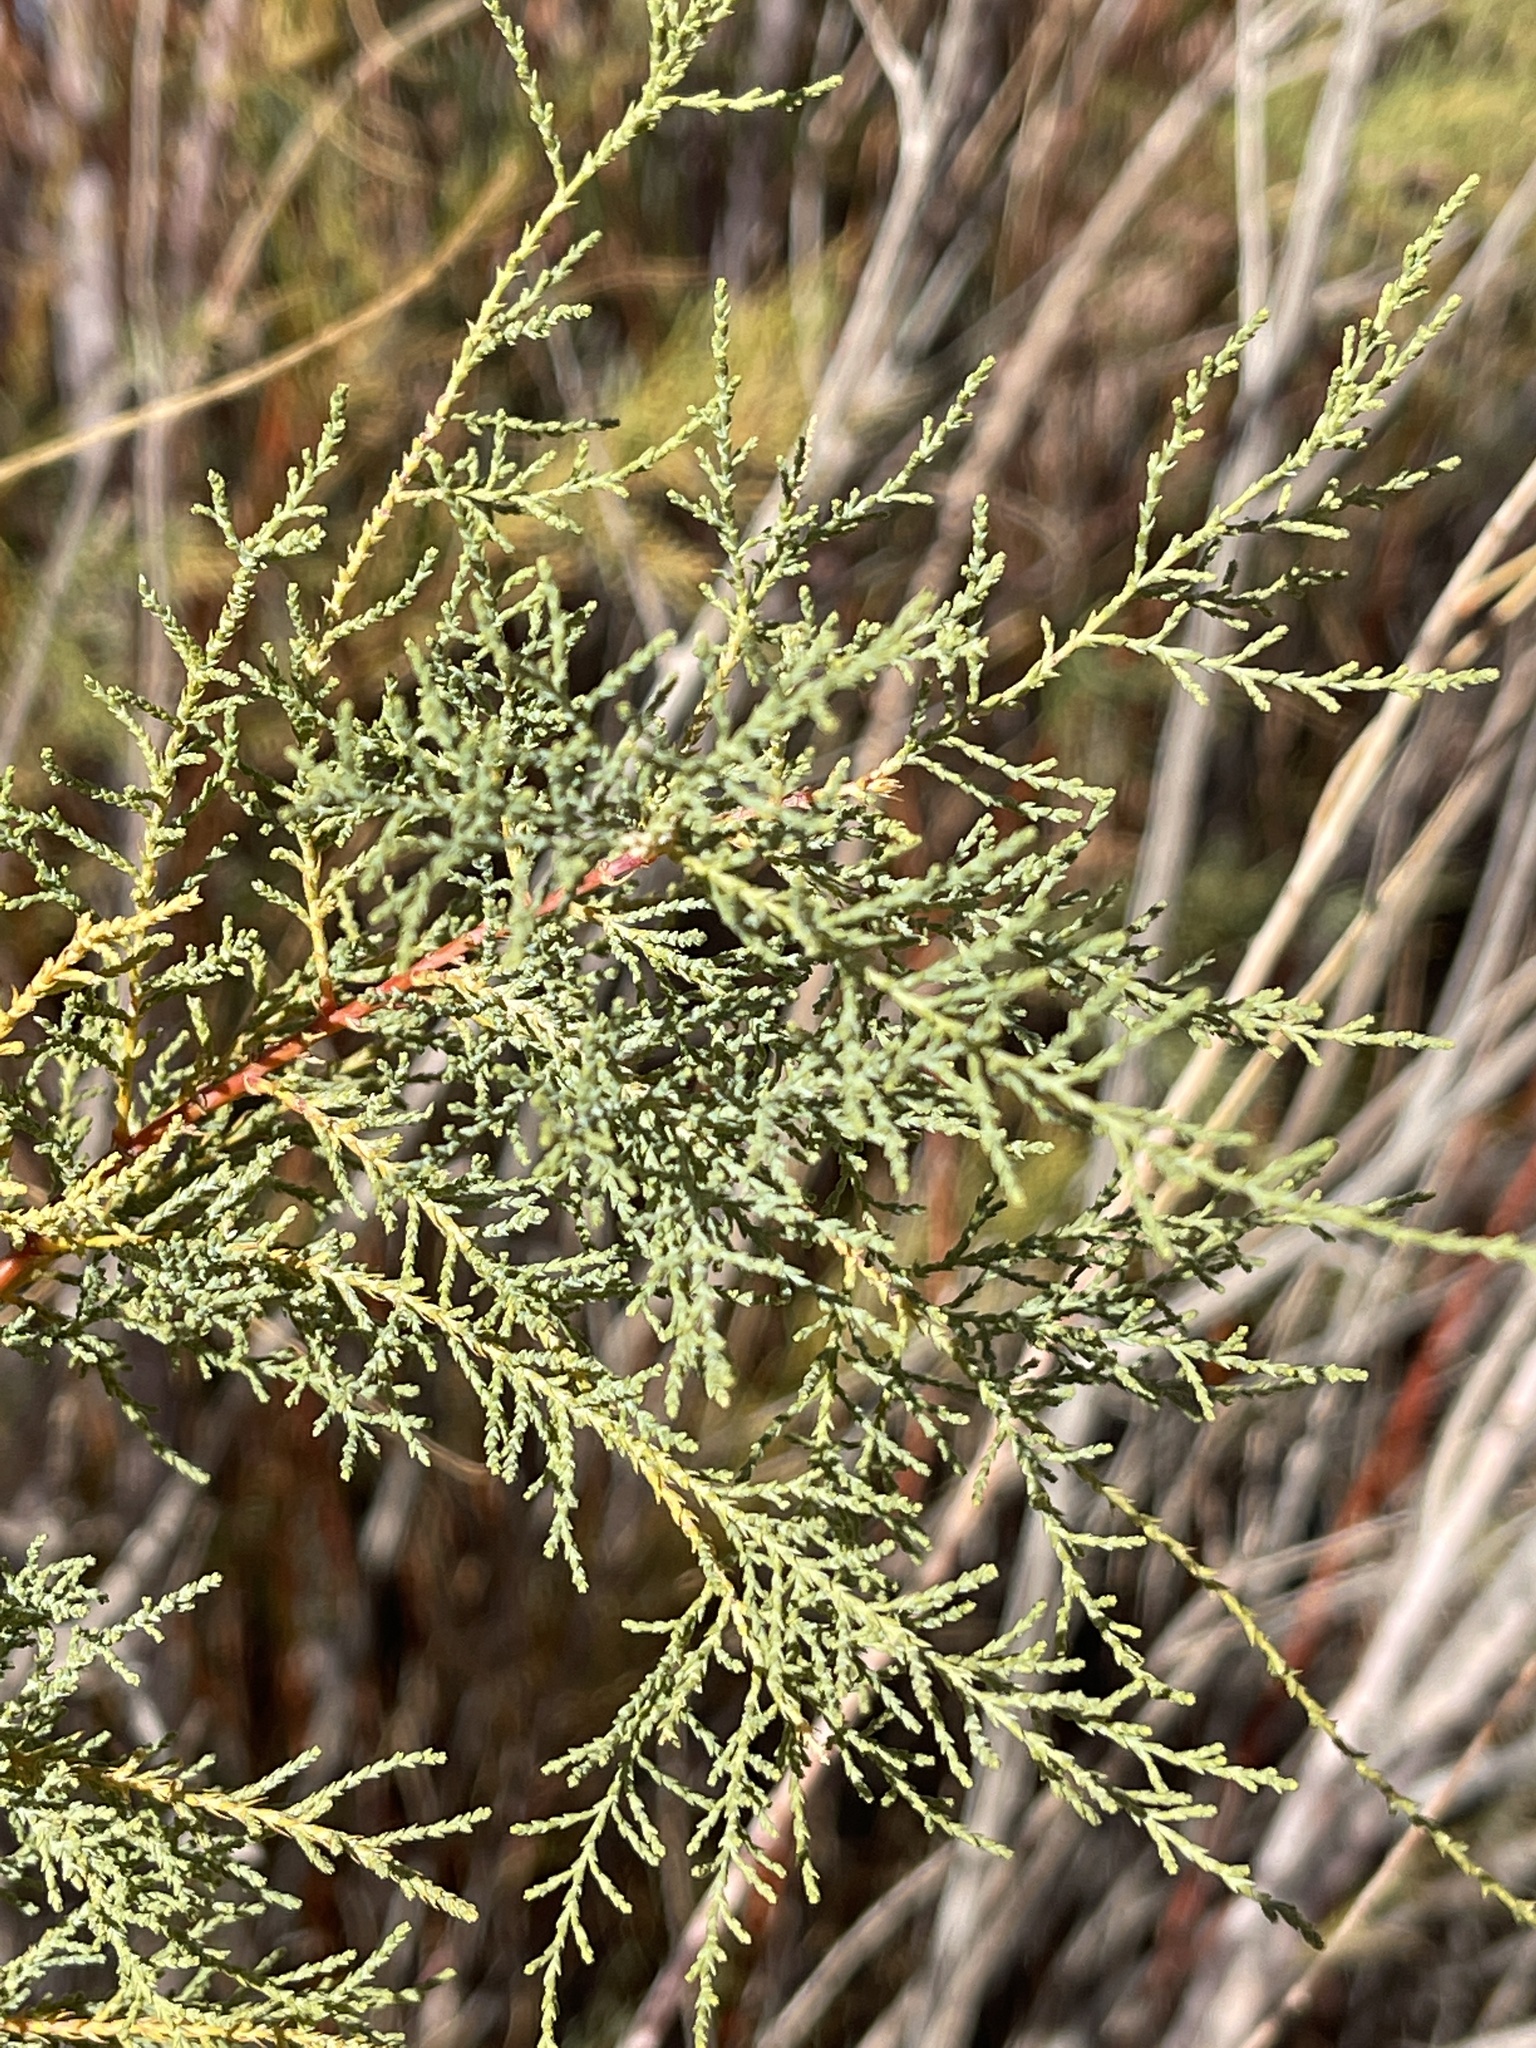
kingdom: Plantae
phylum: Tracheophyta
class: Magnoliopsida
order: Caryophyllales
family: Tamaricaceae
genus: Tamarix
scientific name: Tamarix
